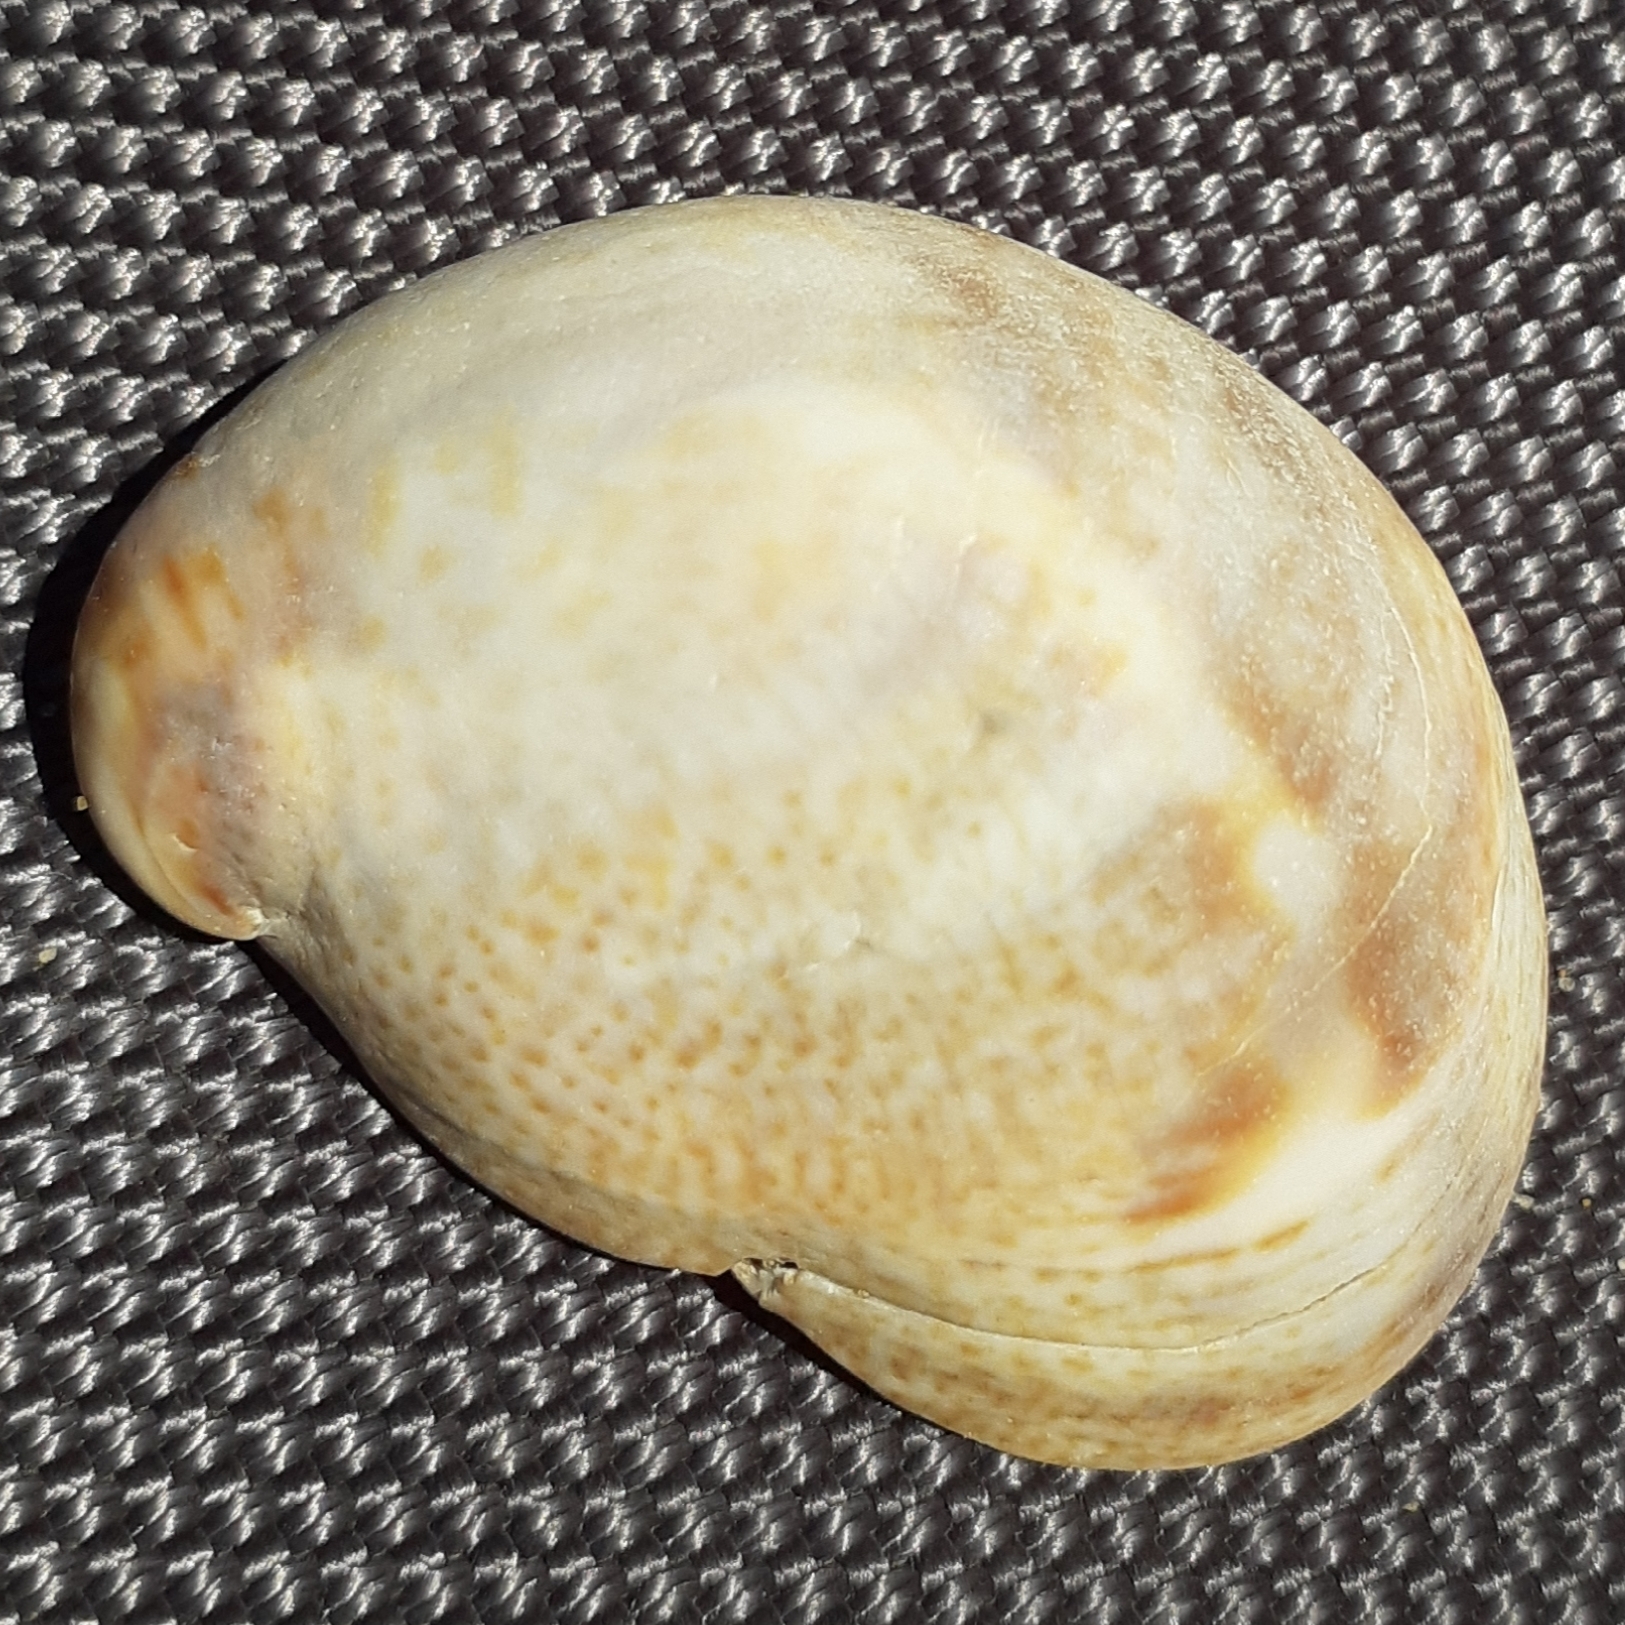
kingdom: Animalia
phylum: Mollusca
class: Gastropoda
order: Littorinimorpha
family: Calyptraeidae
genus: Crepidula
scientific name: Crepidula fornicata
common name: Slipper limpet
